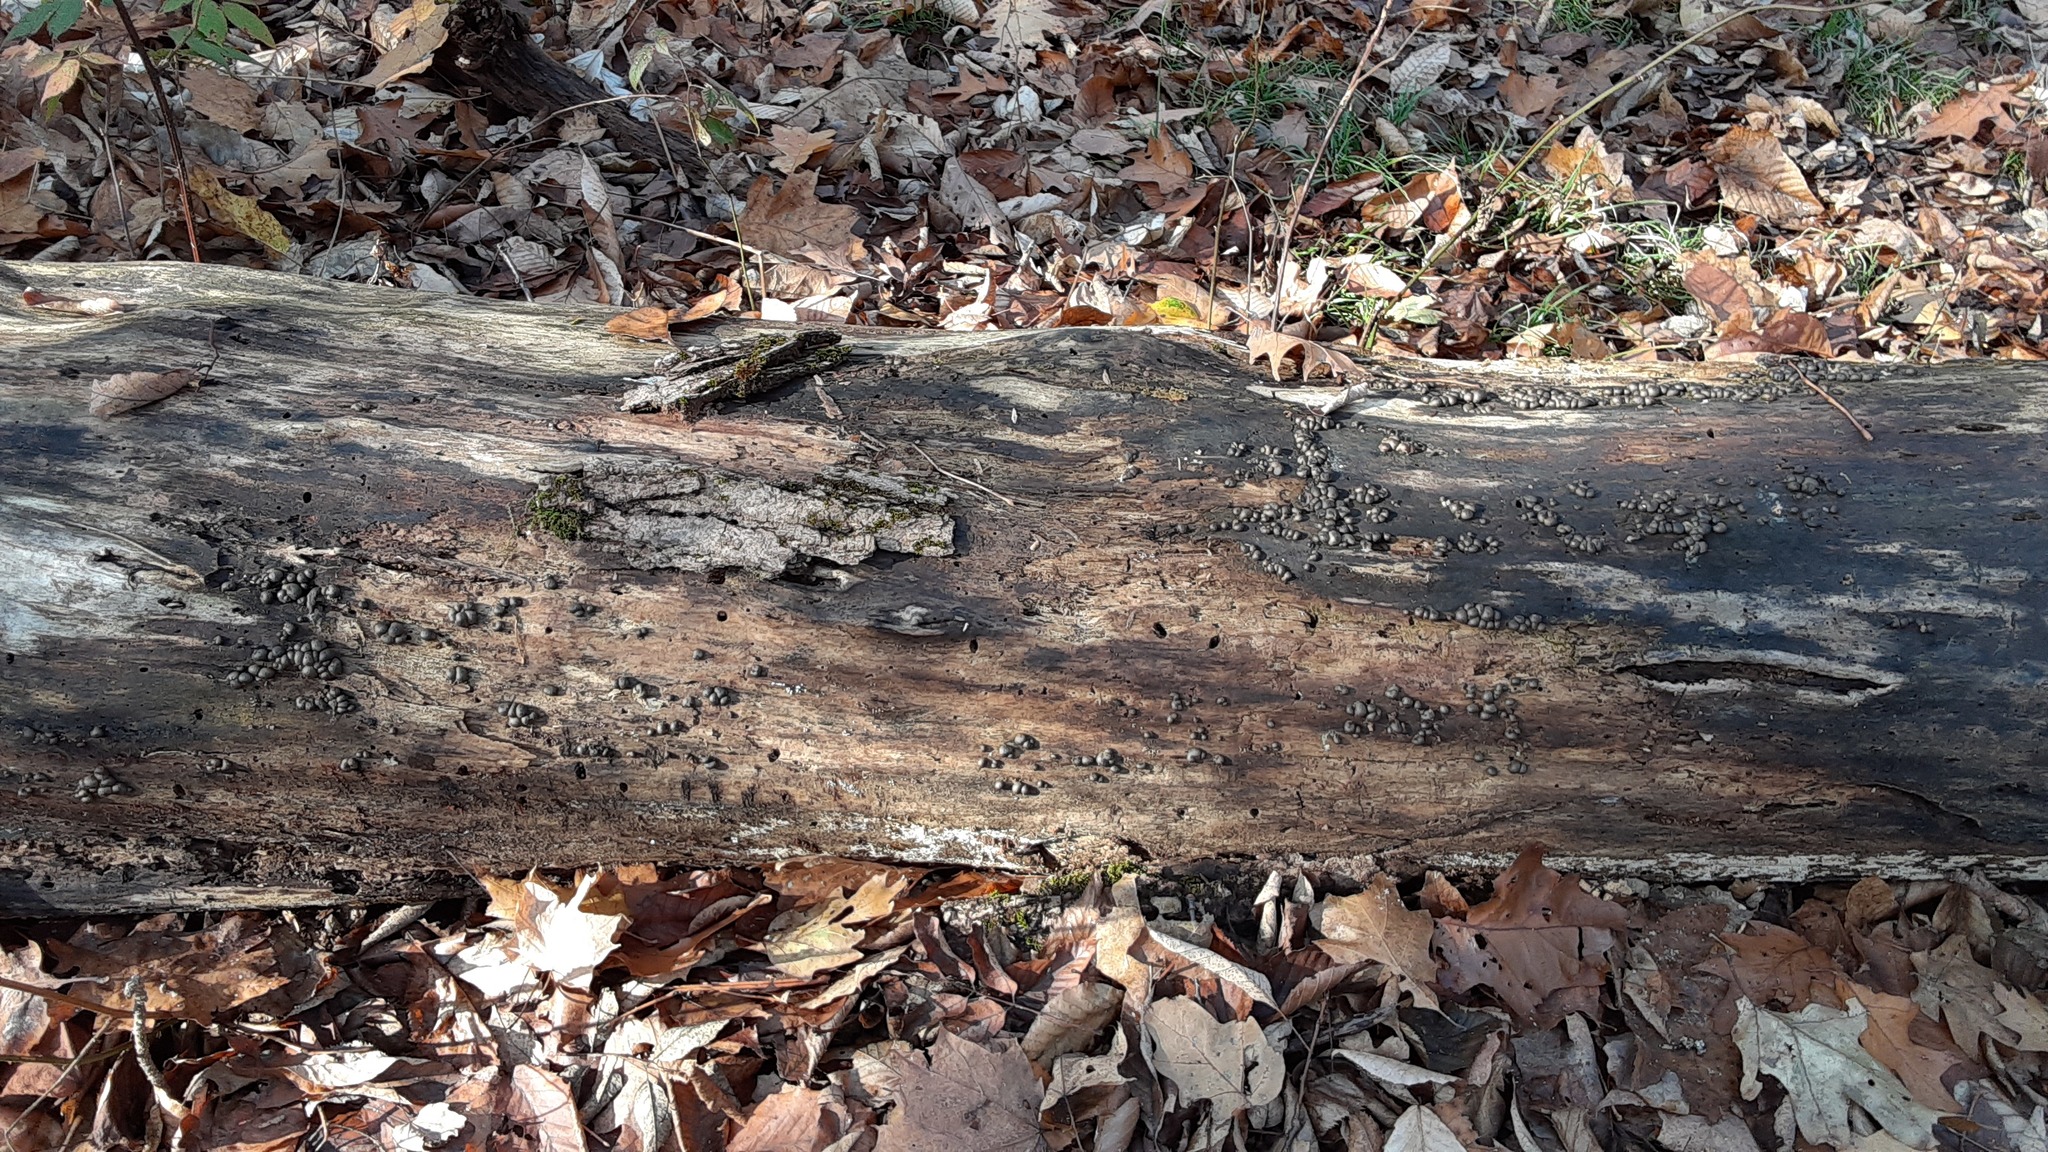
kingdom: Protozoa
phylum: Mycetozoa
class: Myxomycetes
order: Cribrariales
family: Tubiferaceae
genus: Lycogala
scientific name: Lycogala epidendrum
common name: Wolf's milk
